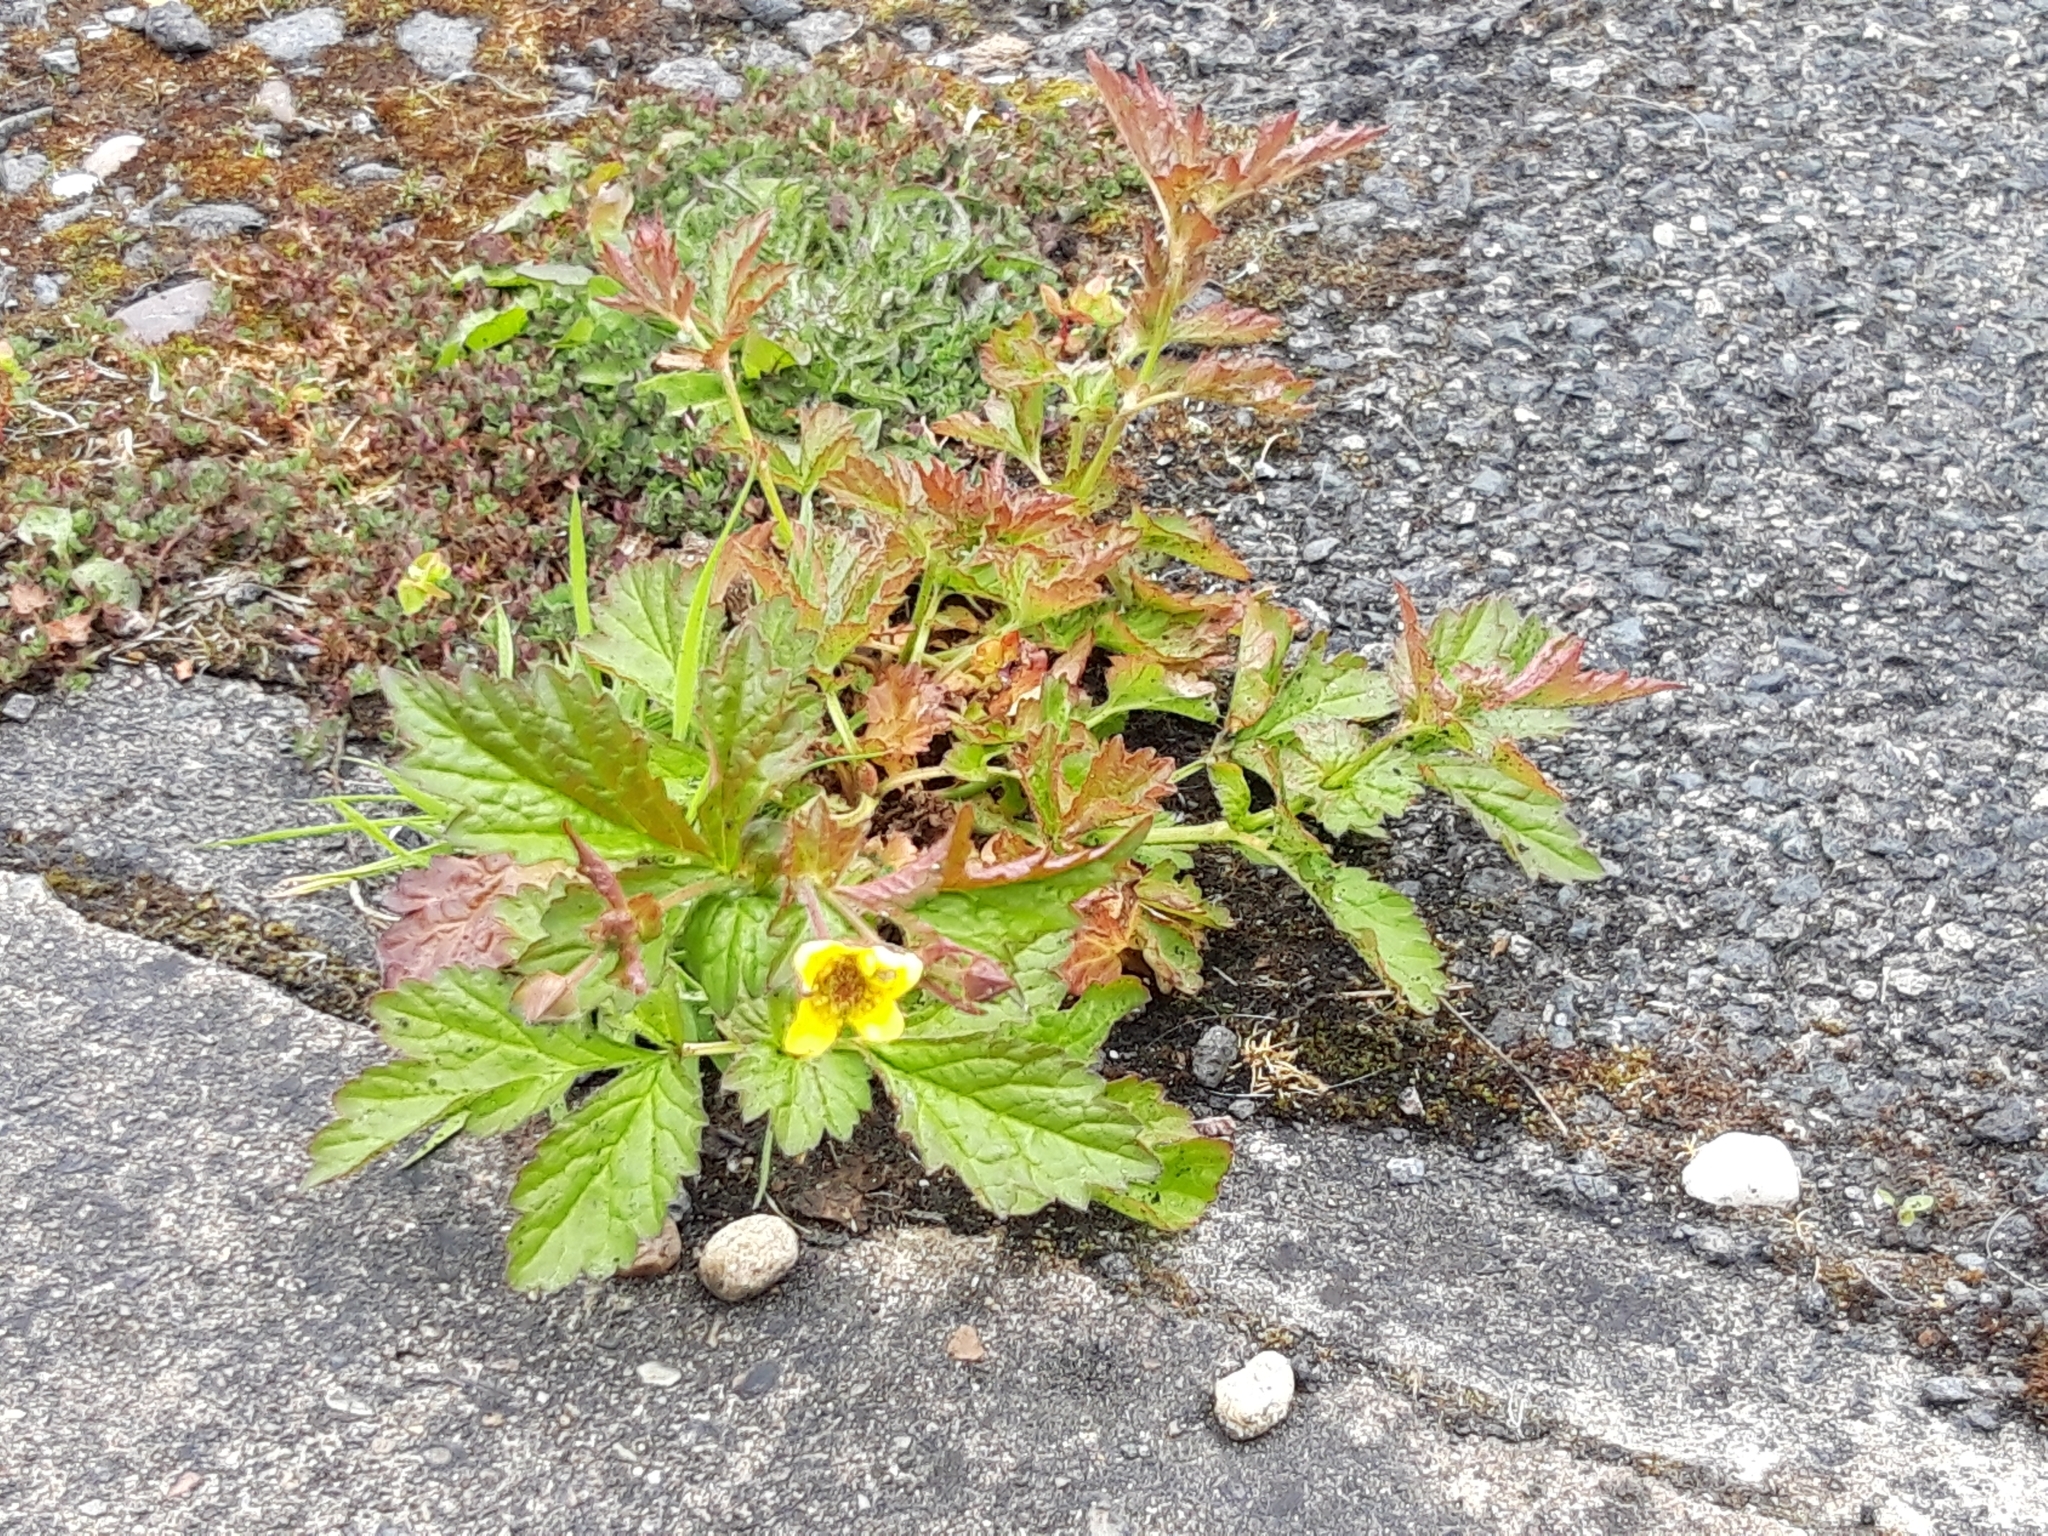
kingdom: Plantae
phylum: Tracheophyta
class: Magnoliopsida
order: Rosales
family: Rosaceae
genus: Geum
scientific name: Geum urbanum
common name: Wood avens
